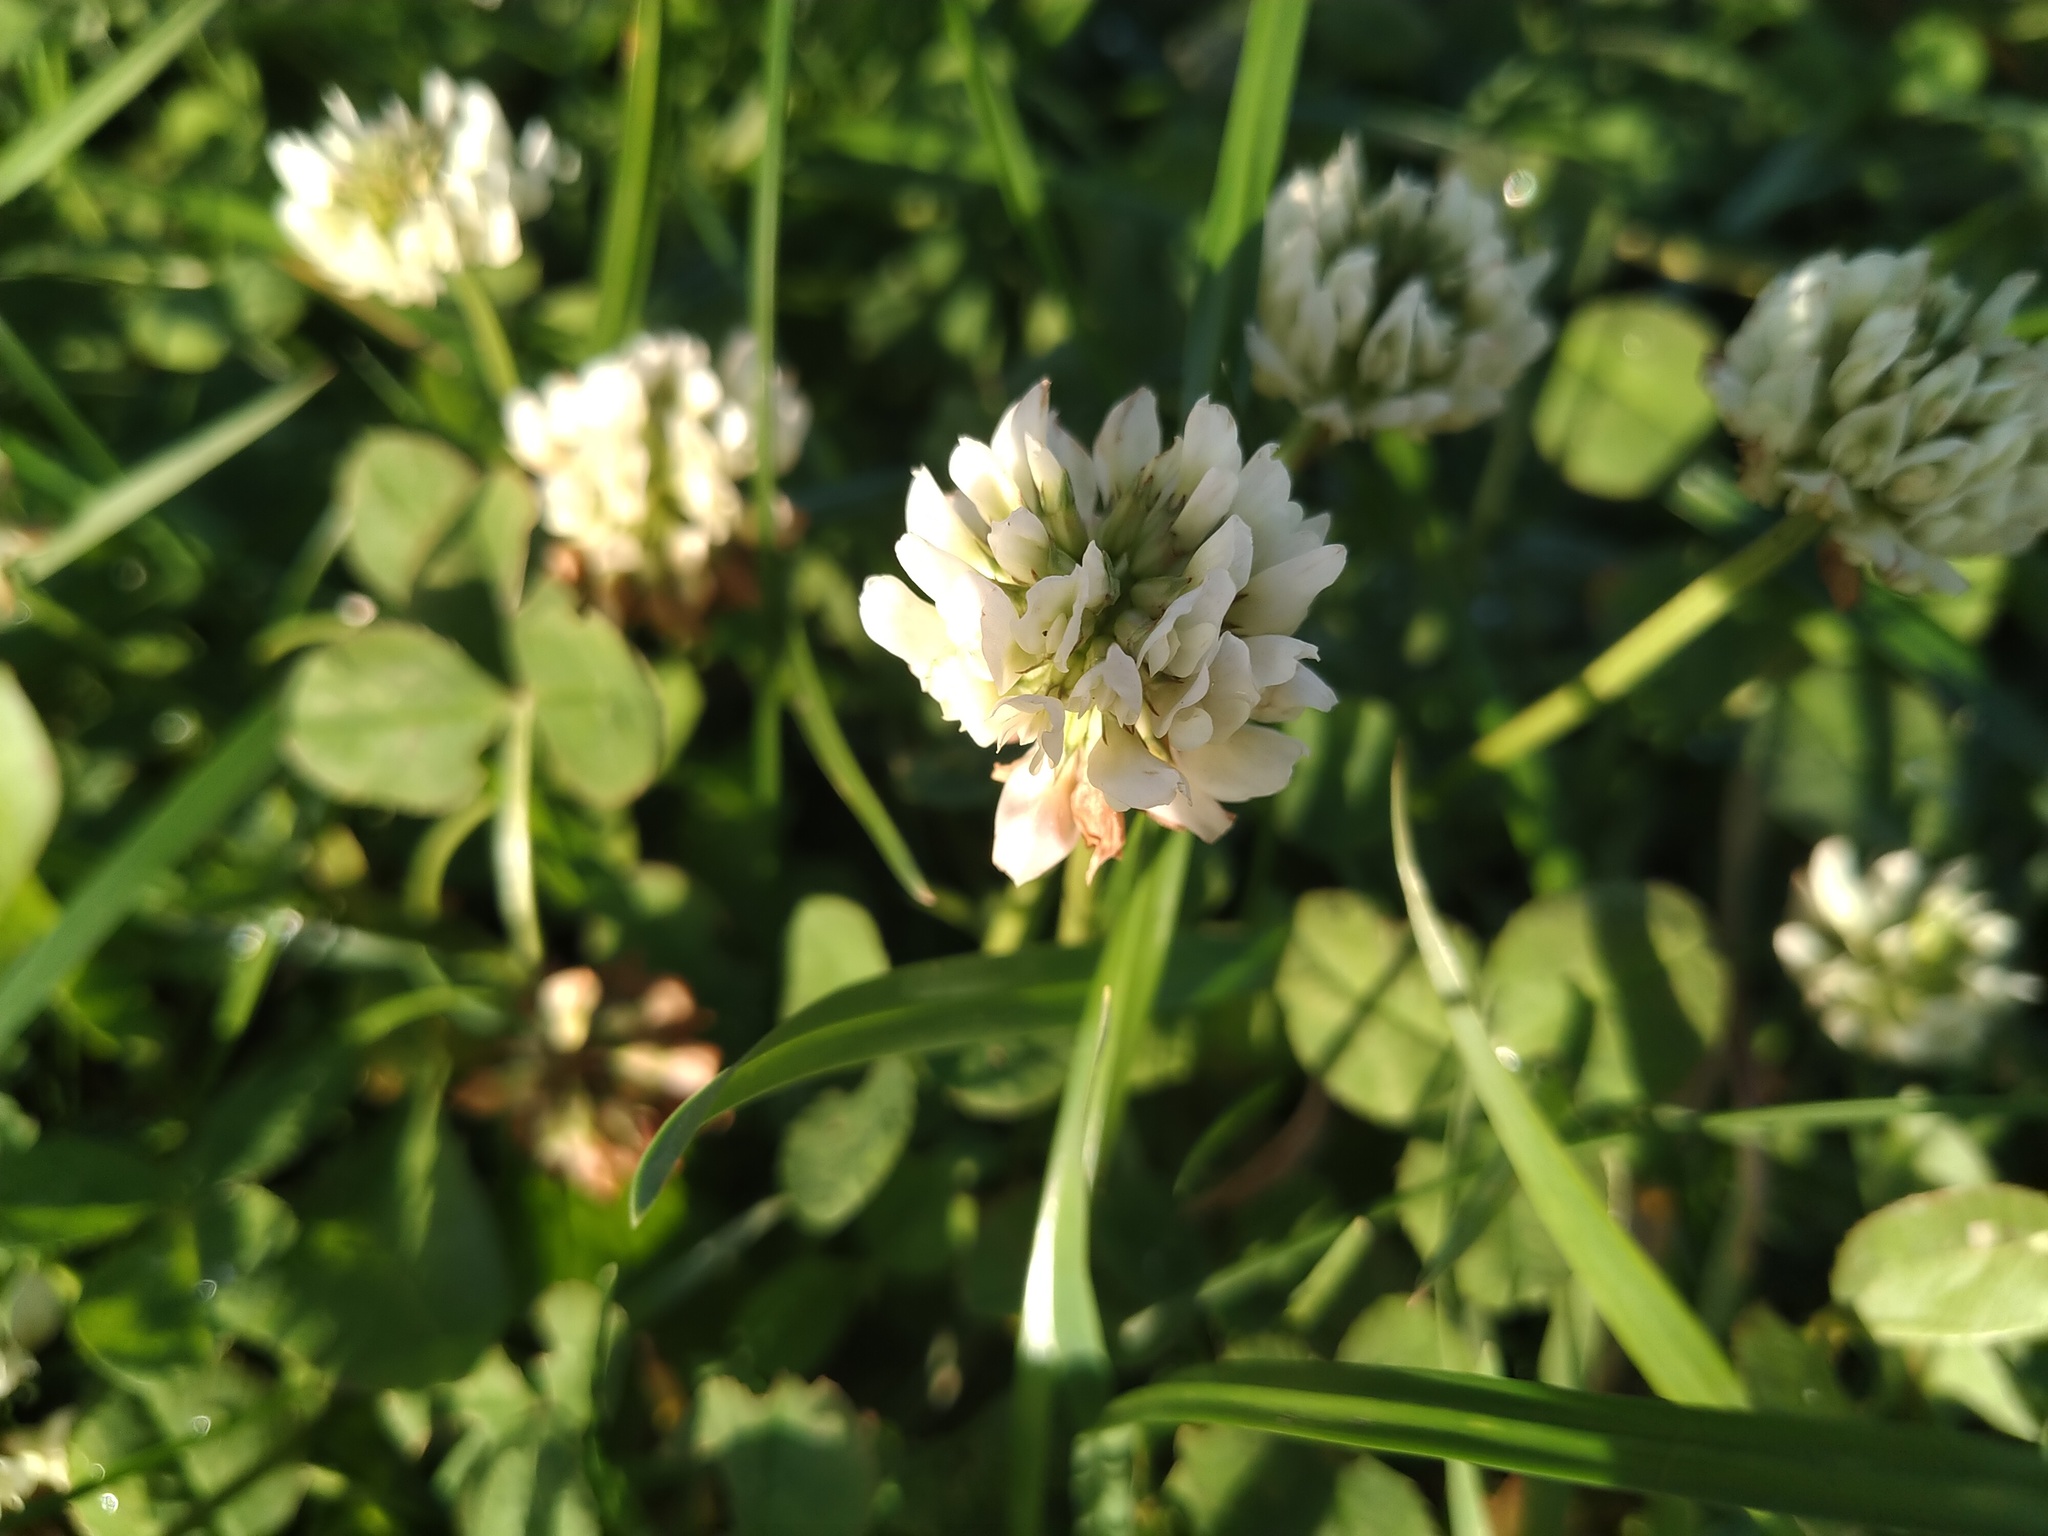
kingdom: Plantae
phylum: Tracheophyta
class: Magnoliopsida
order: Fabales
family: Fabaceae
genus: Trifolium
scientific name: Trifolium repens
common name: White clover
